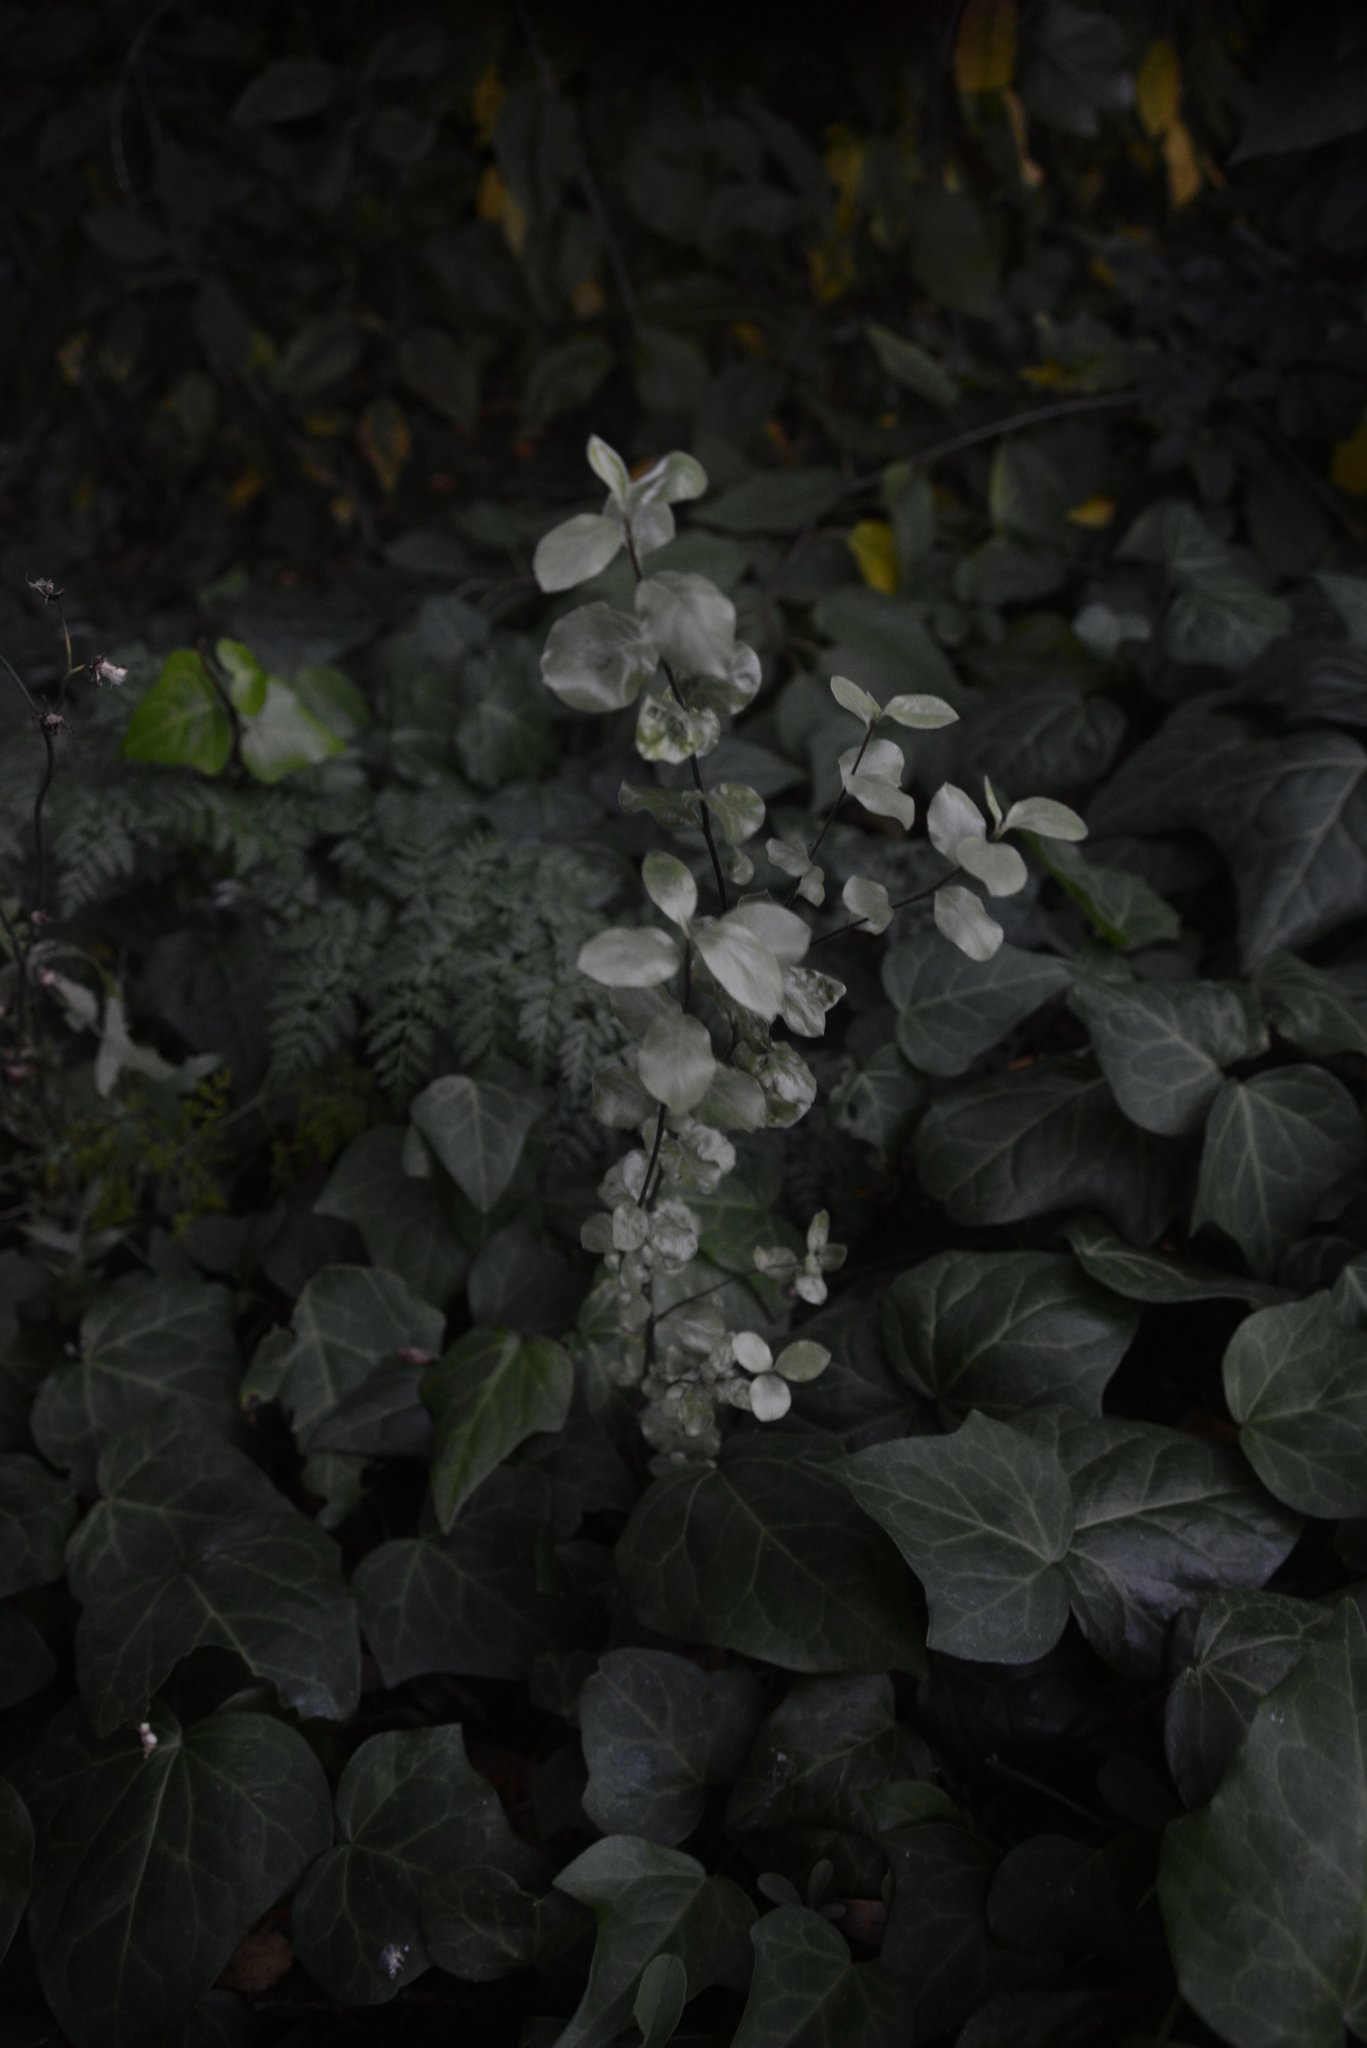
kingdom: Plantae
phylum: Tracheophyta
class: Magnoliopsida
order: Apiales
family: Pittosporaceae
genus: Pittosporum
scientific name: Pittosporum tenuifolium
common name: Kohuhu
